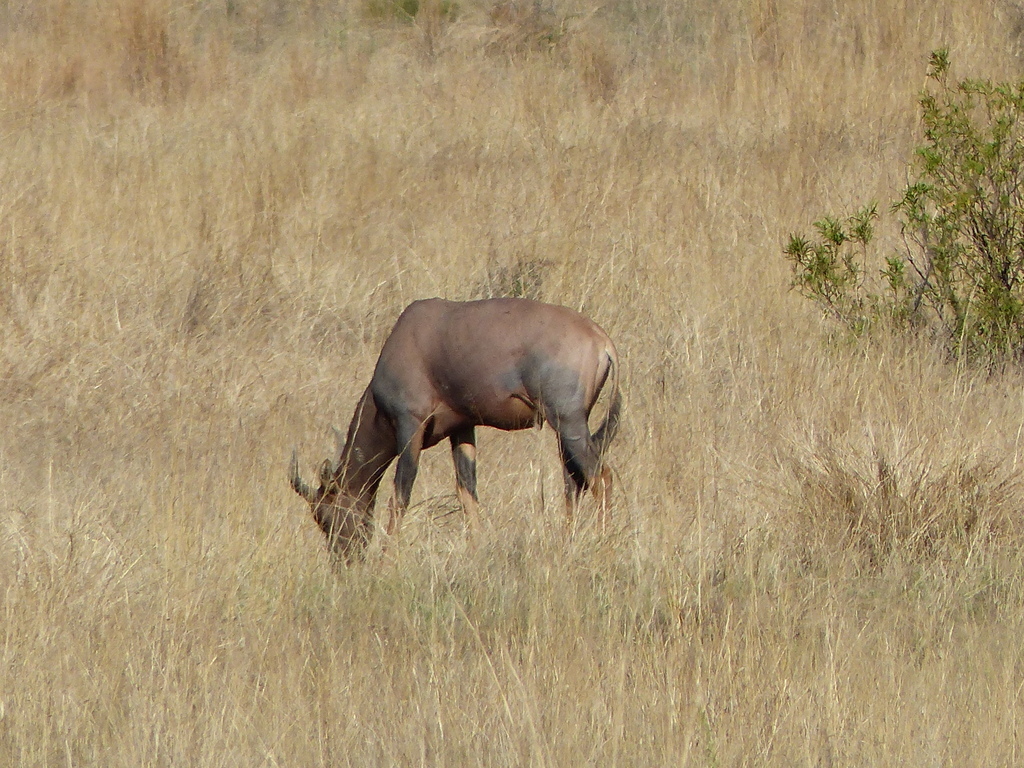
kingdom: Animalia
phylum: Chordata
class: Mammalia
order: Artiodactyla
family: Bovidae
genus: Damaliscus
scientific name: Damaliscus lunatus
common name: Common tsessebe
